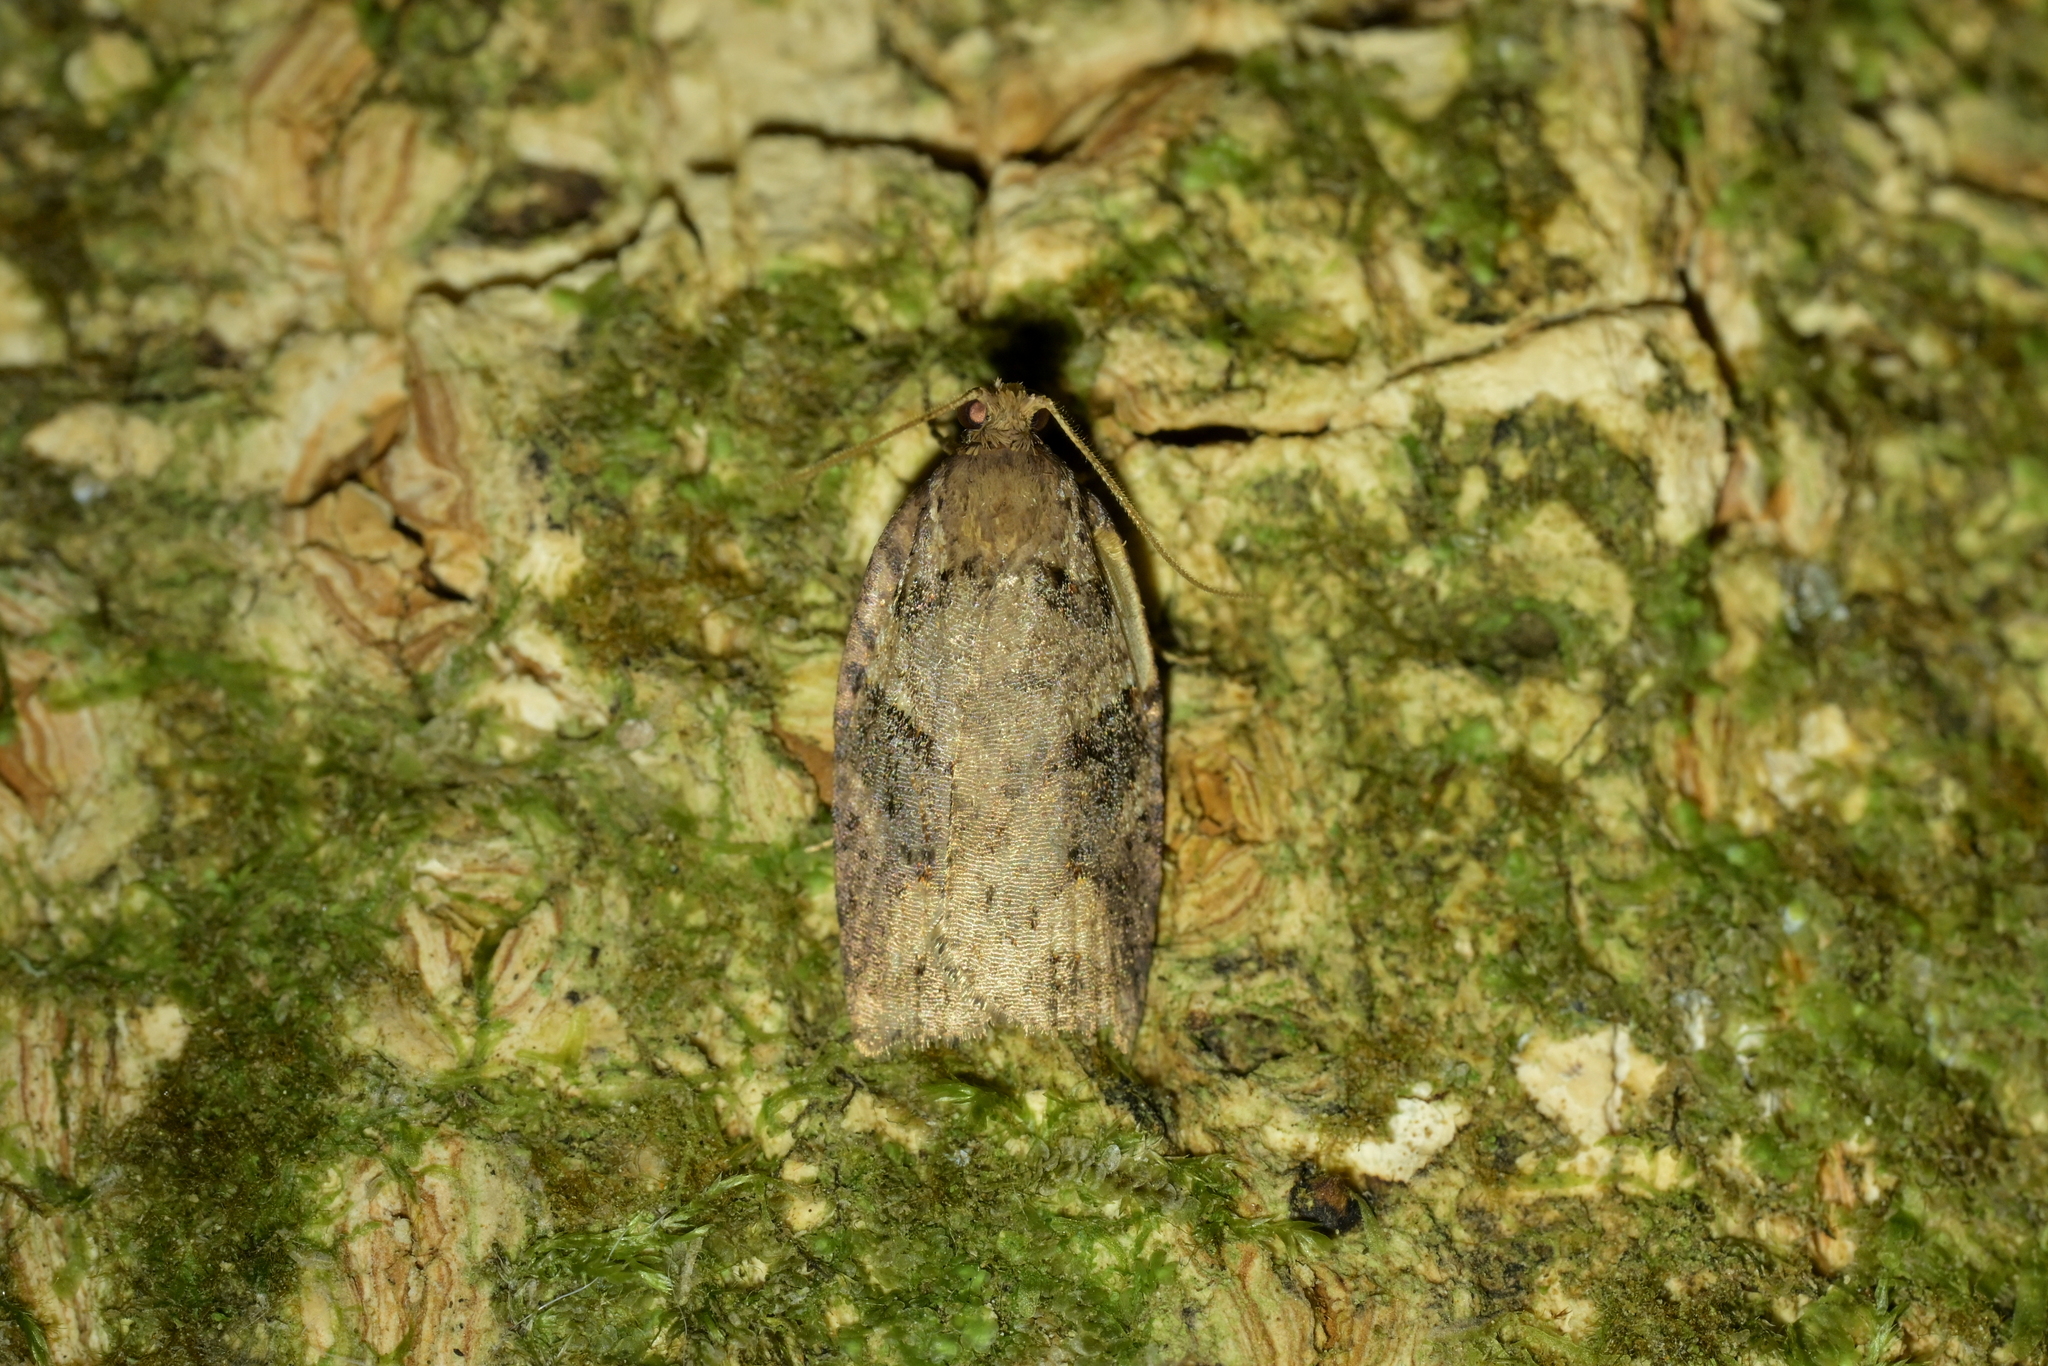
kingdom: Animalia
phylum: Arthropoda
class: Insecta
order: Lepidoptera
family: Tortricidae
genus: Ctenopseustis
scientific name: Ctenopseustis obliquana
